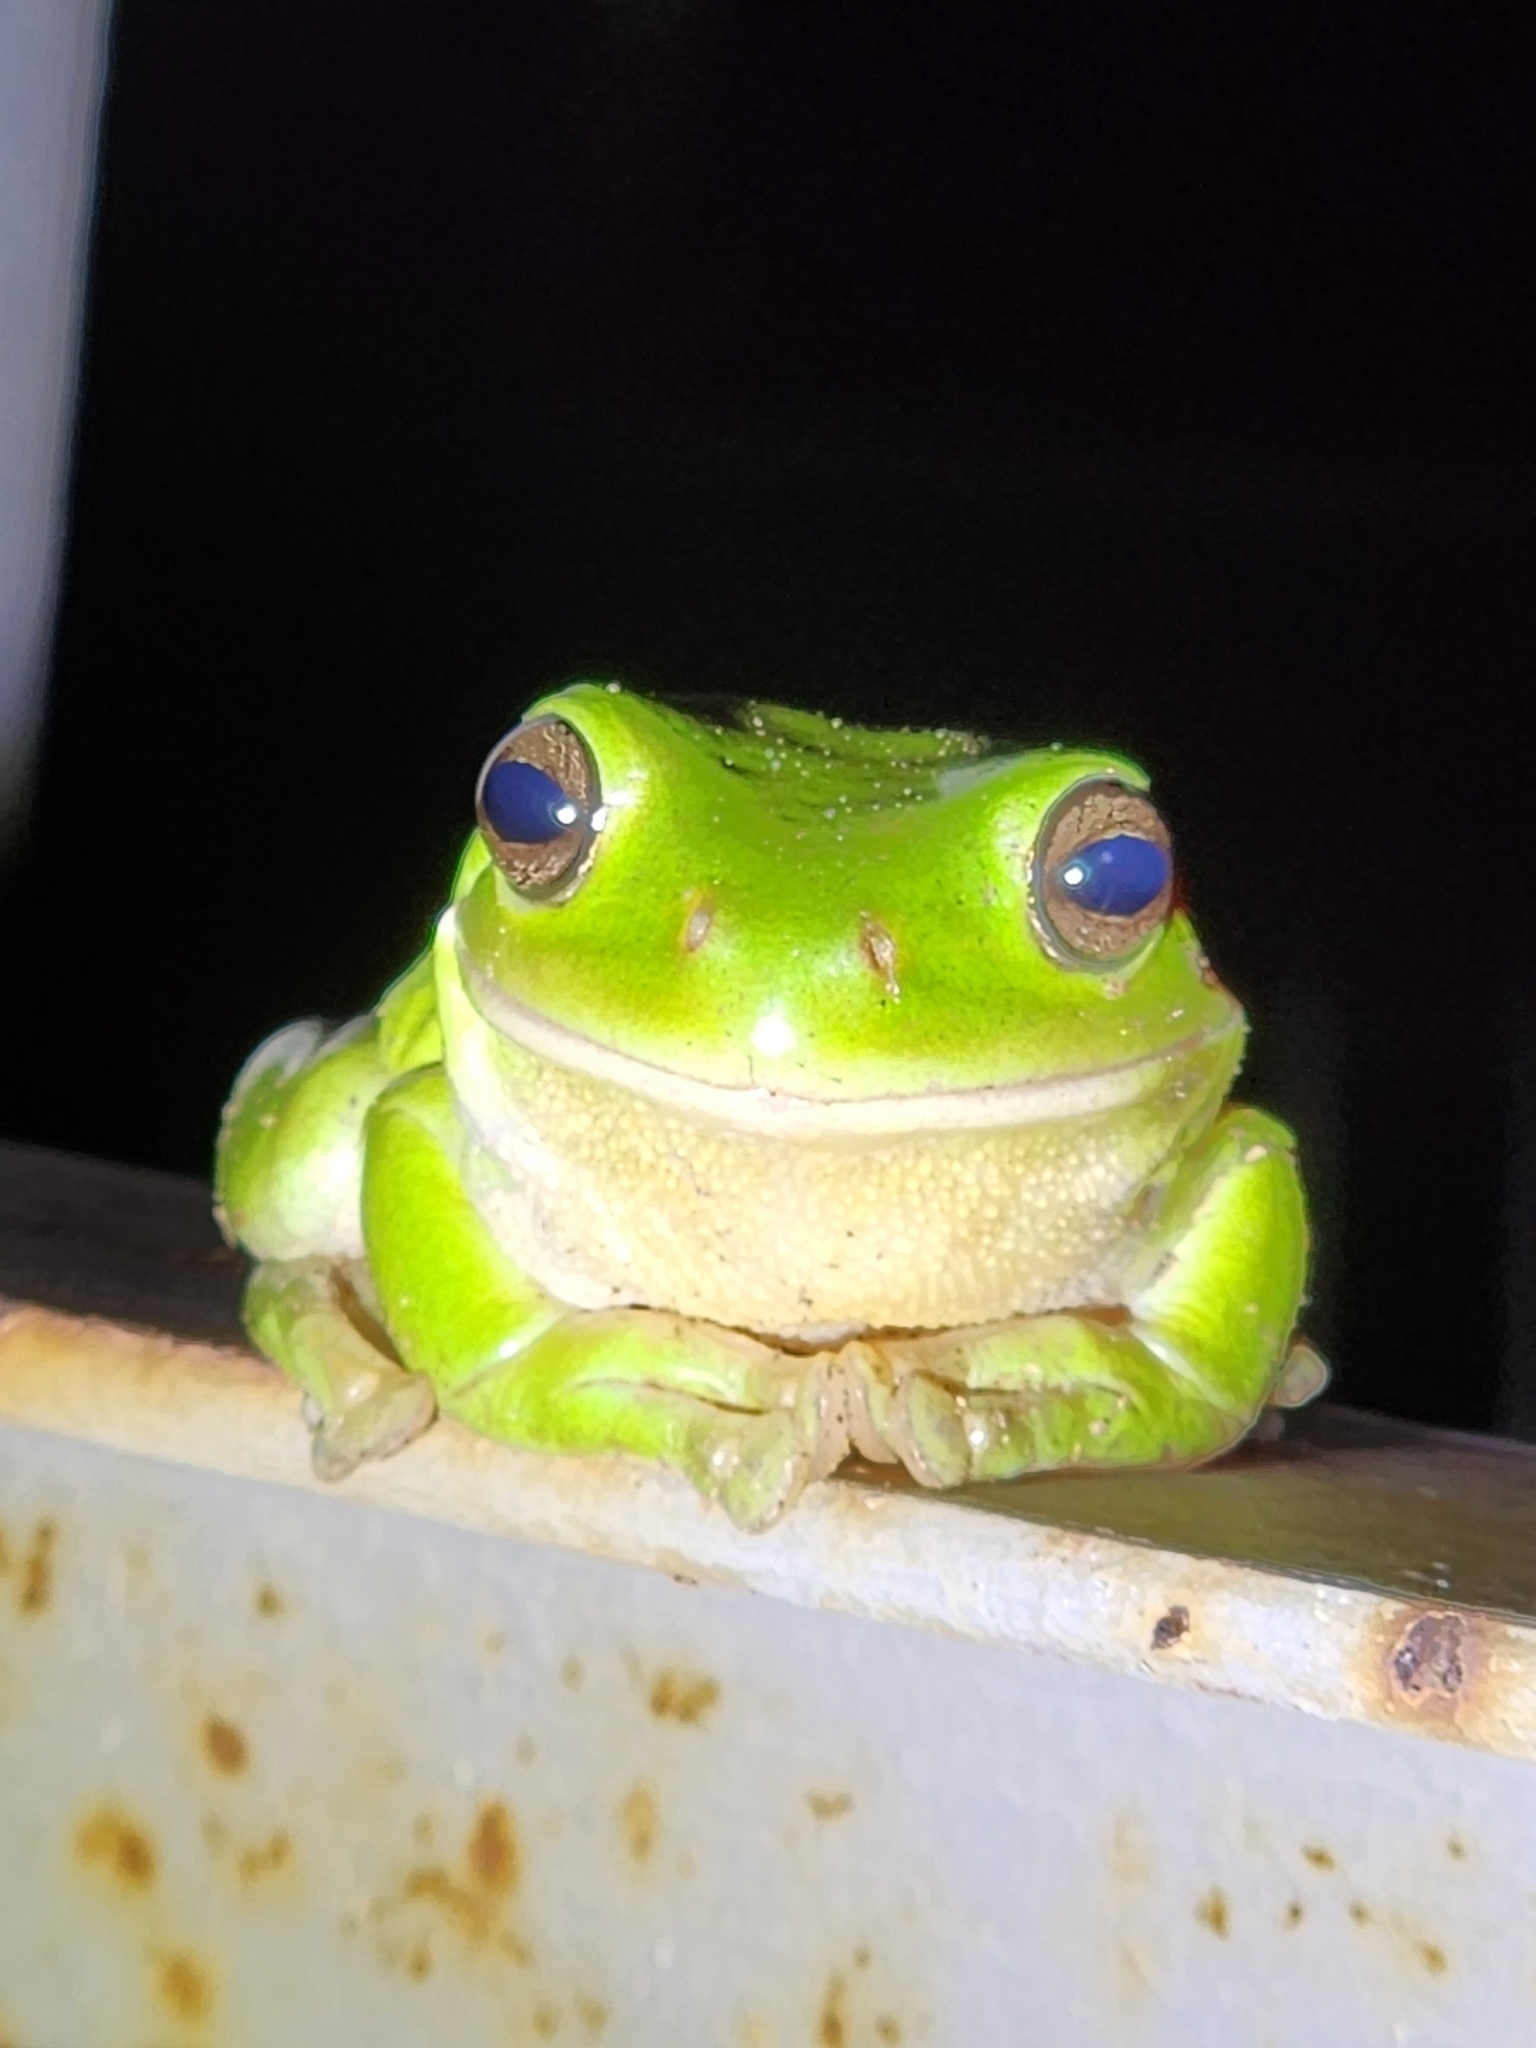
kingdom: Animalia
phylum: Chordata
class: Amphibia
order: Anura
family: Pelodryadidae
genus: Ranoidea
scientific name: Ranoidea caerulea
